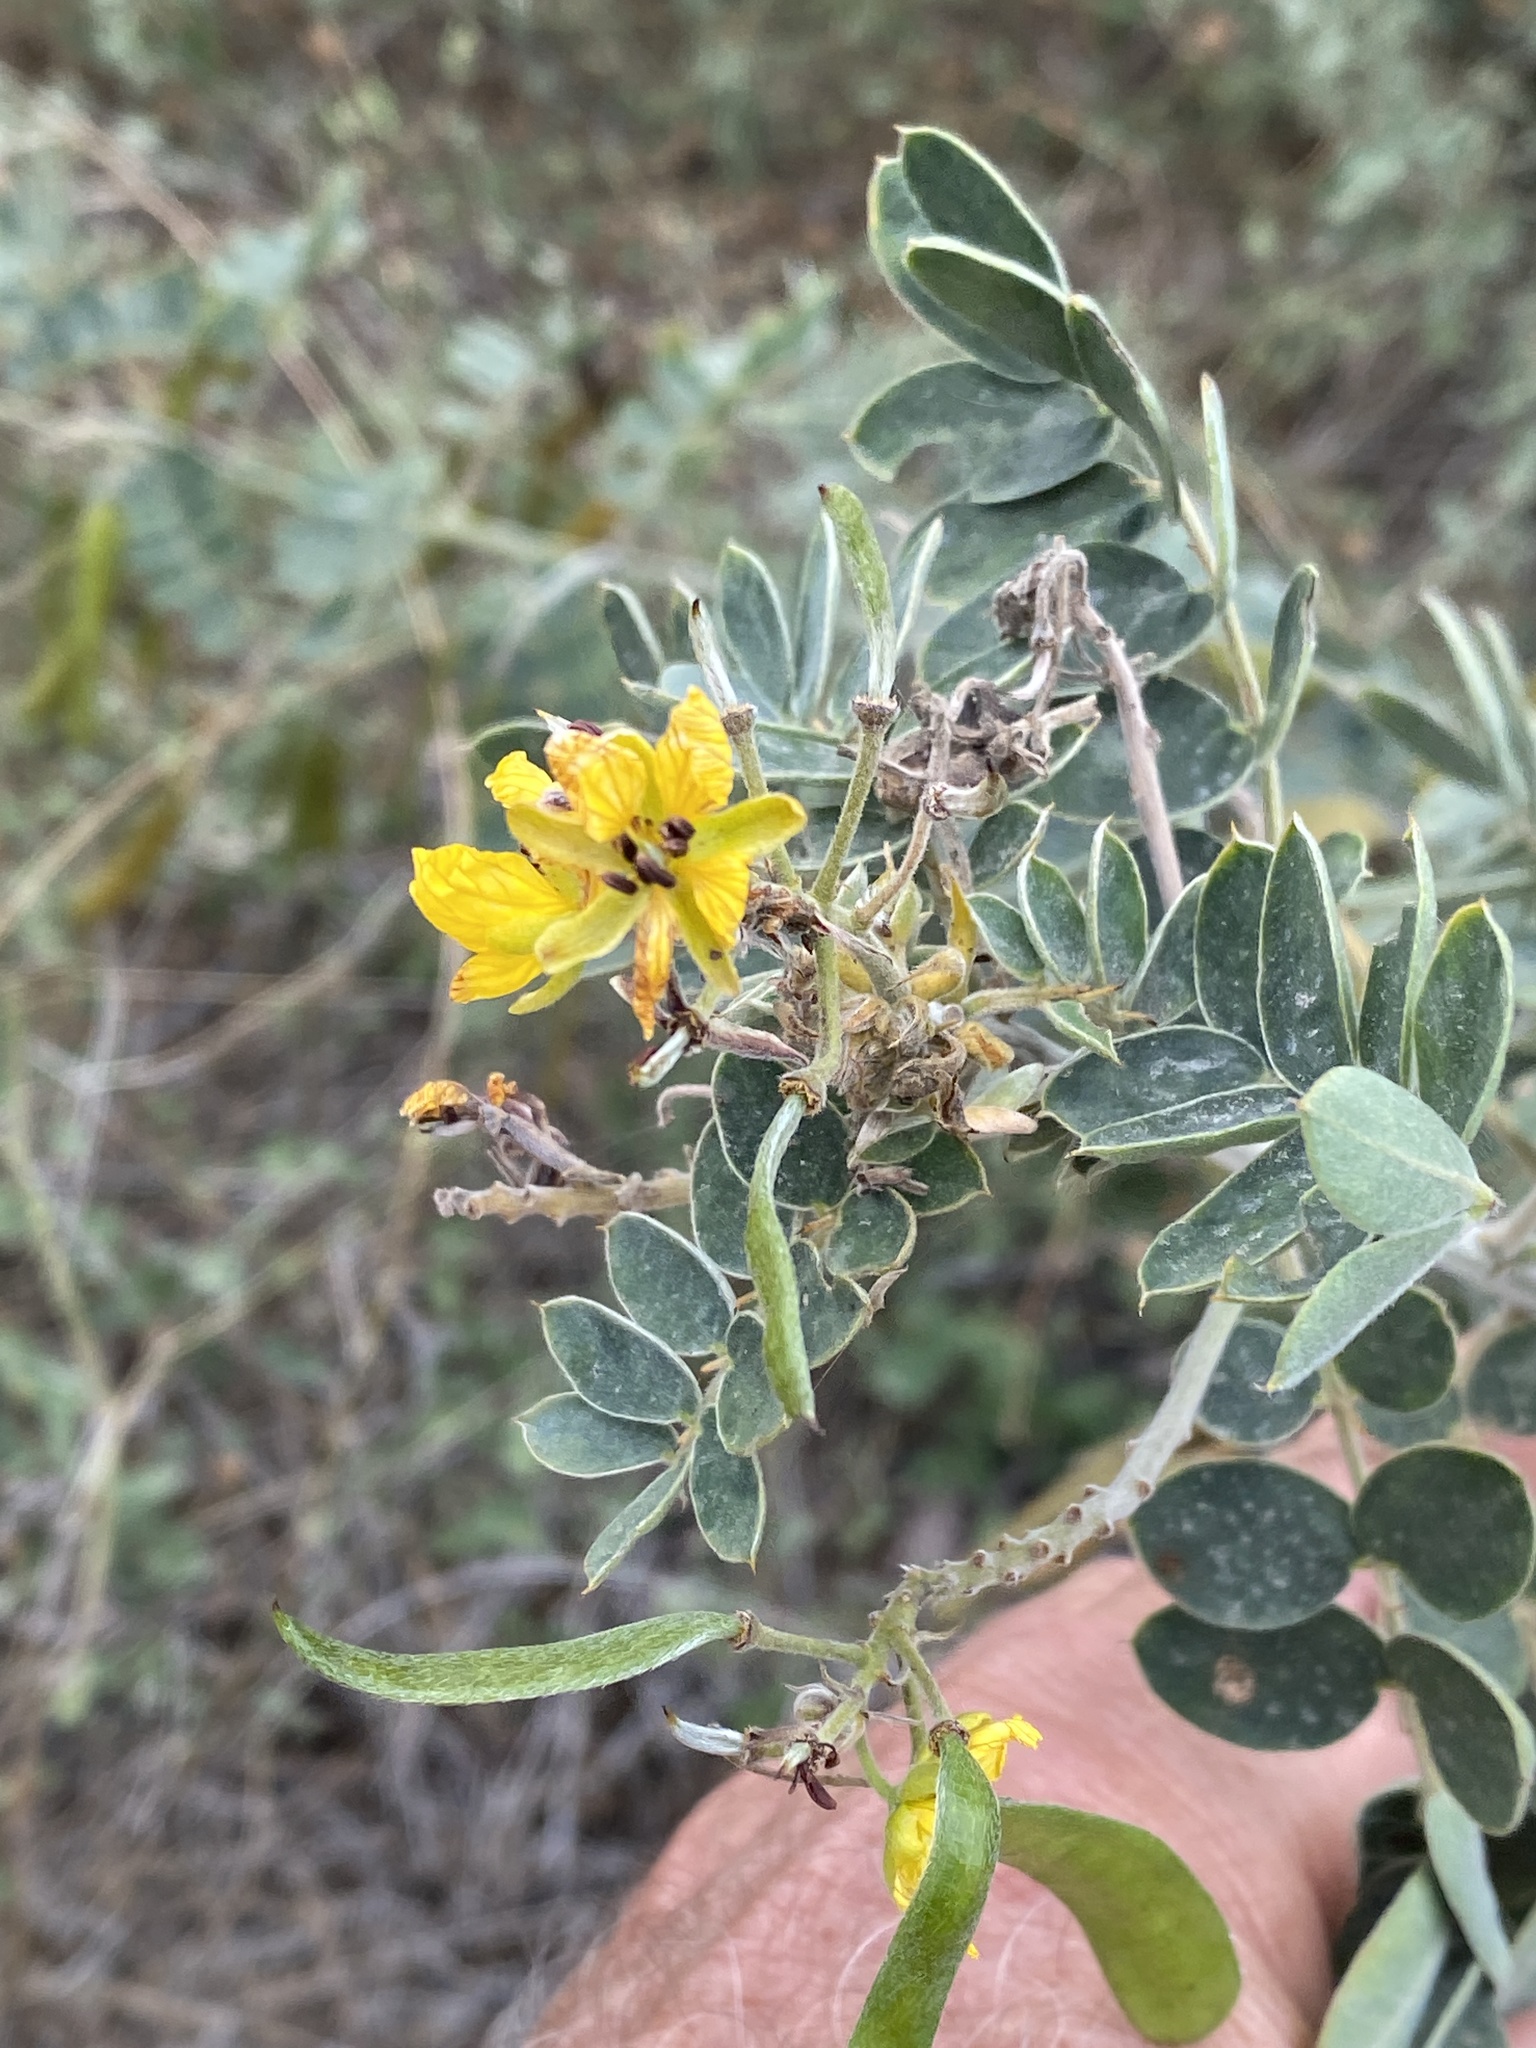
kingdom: Plantae
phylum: Tracheophyta
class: Magnoliopsida
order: Fabales
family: Fabaceae
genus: Senna
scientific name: Senna lindheimeriana
